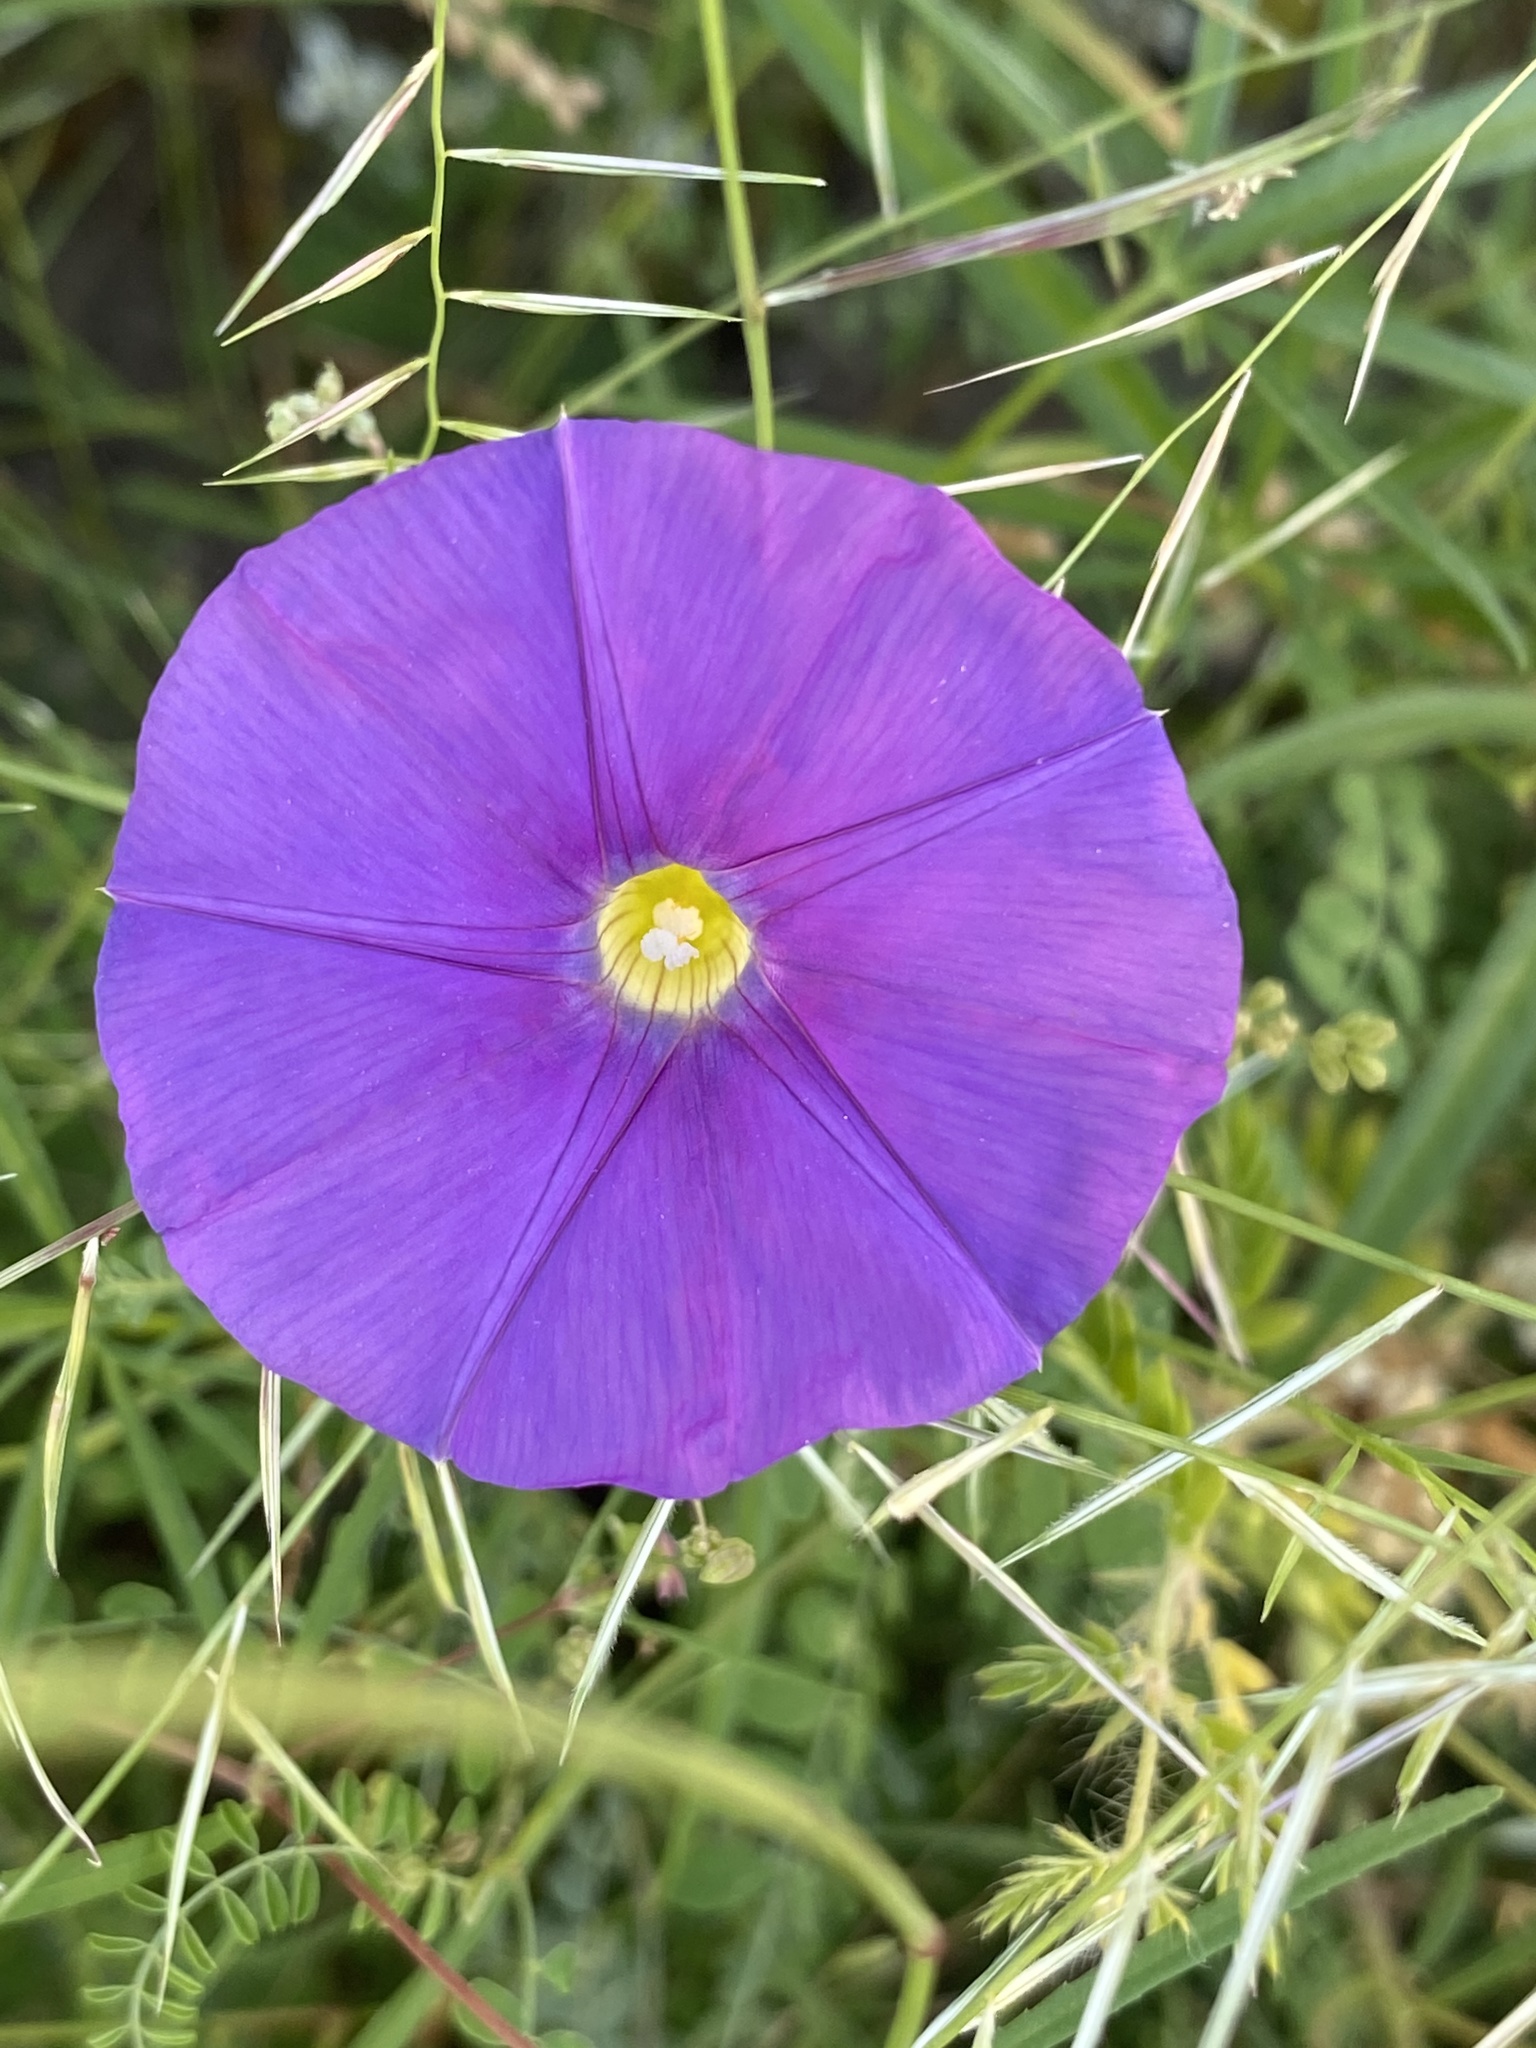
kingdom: Plantae
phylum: Tracheophyta
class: Magnoliopsida
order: Solanales
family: Convolvulaceae
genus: Ipomoea
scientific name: Ipomoea ternifolia
